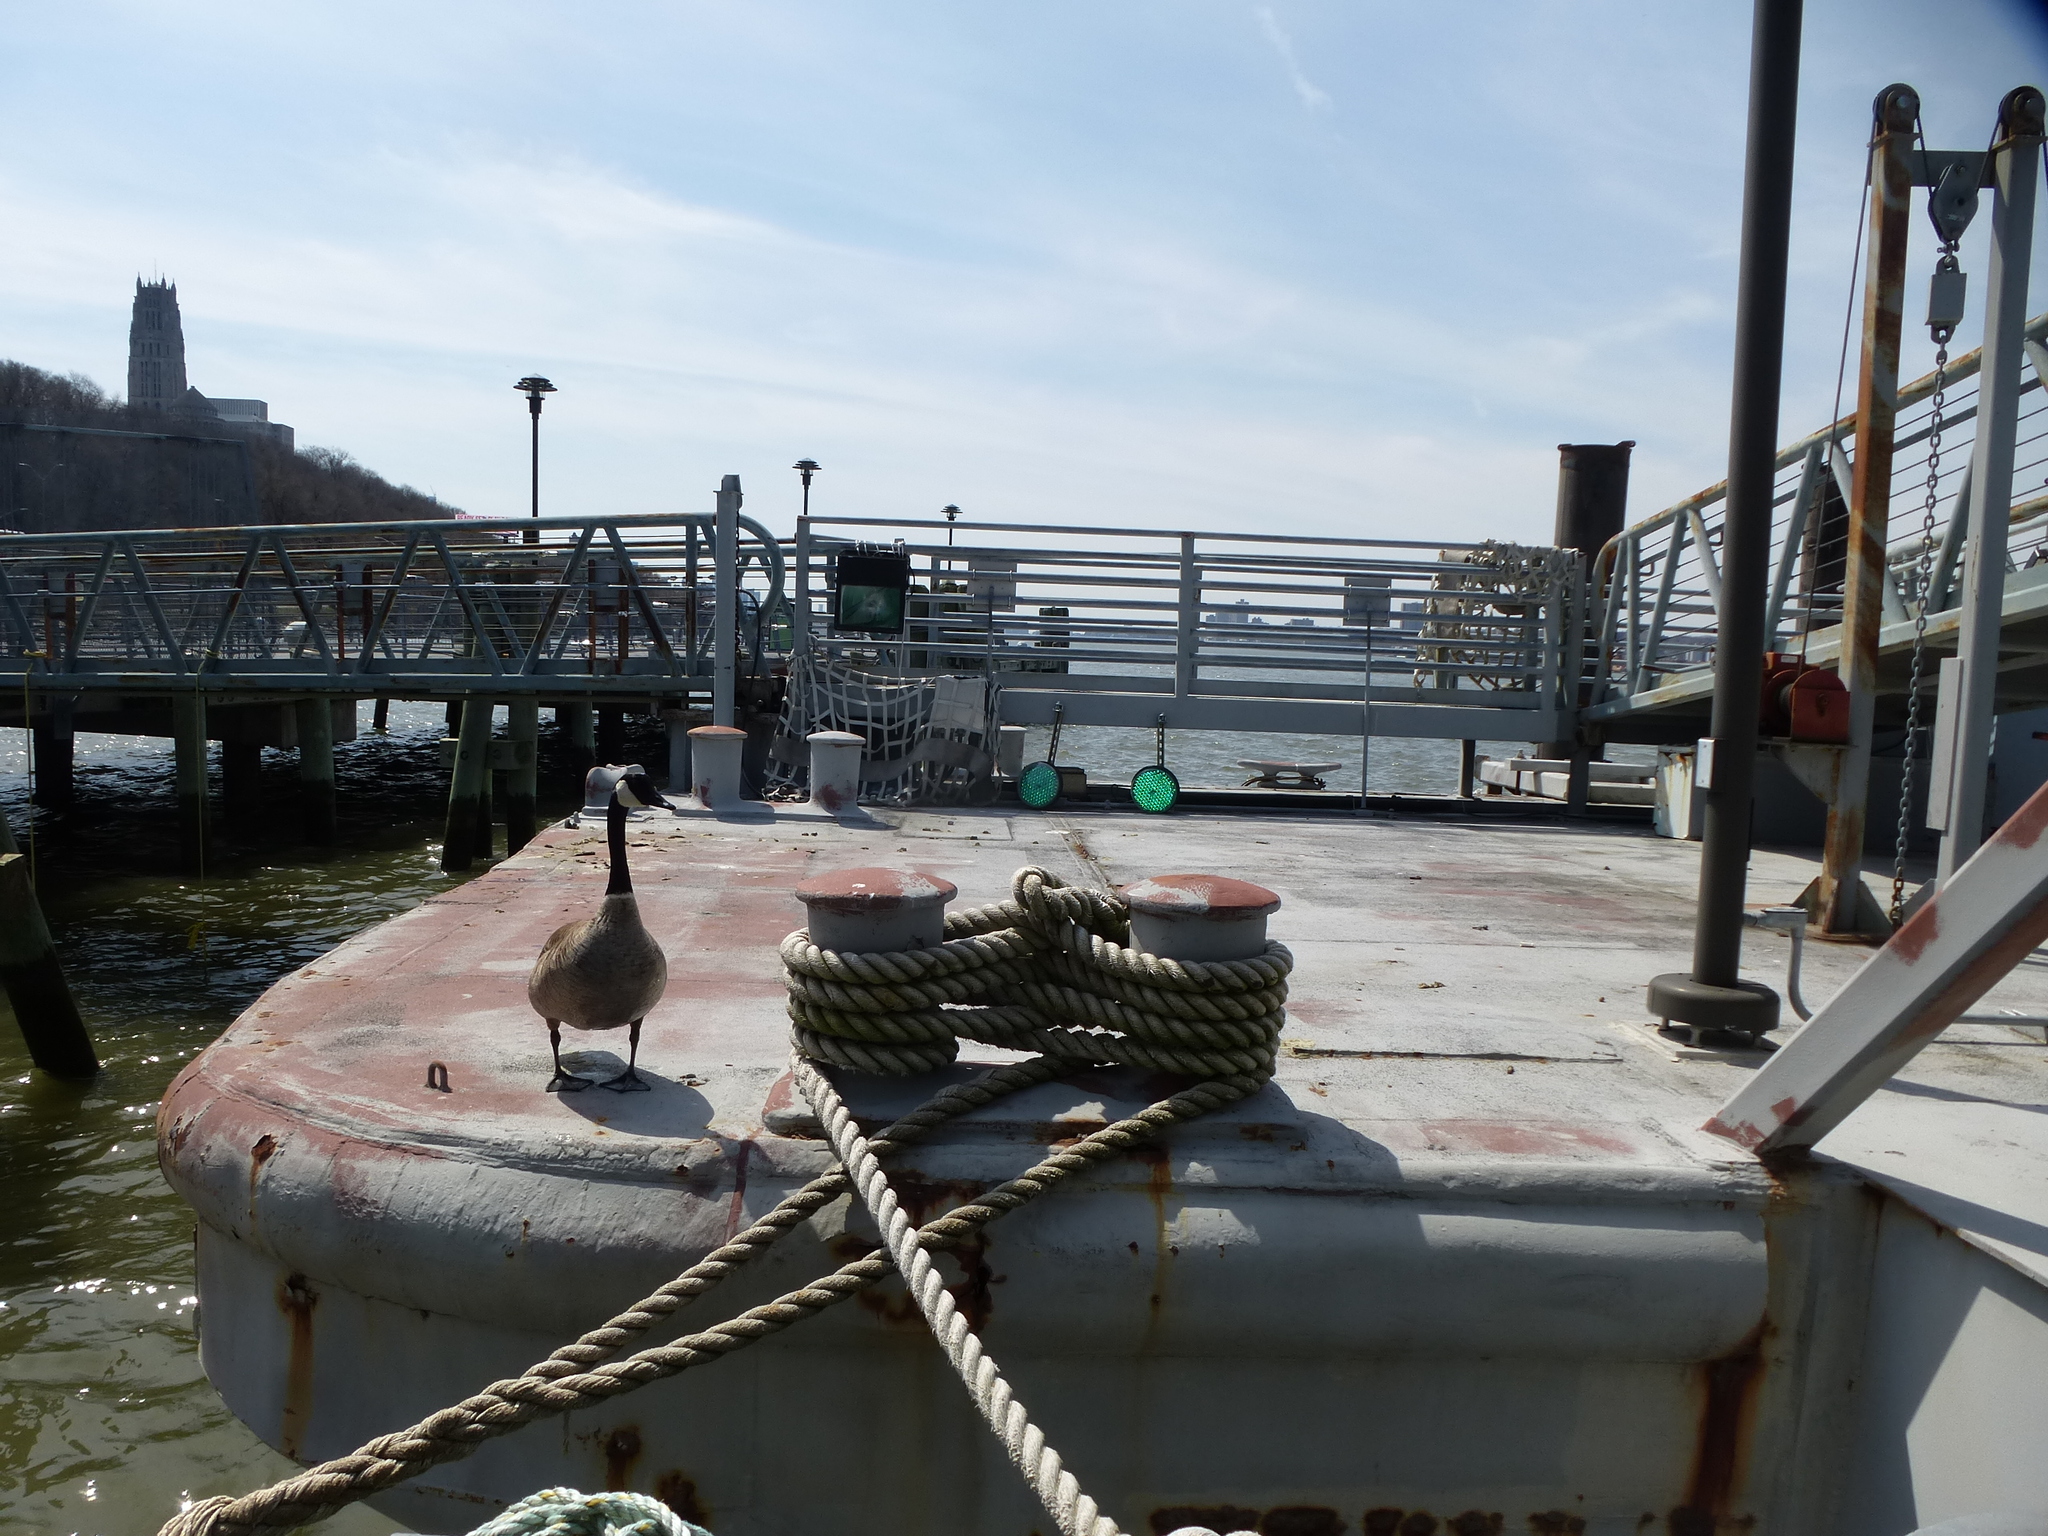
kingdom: Animalia
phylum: Chordata
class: Aves
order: Anseriformes
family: Anatidae
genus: Branta
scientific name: Branta bernicla
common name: Brant goose
